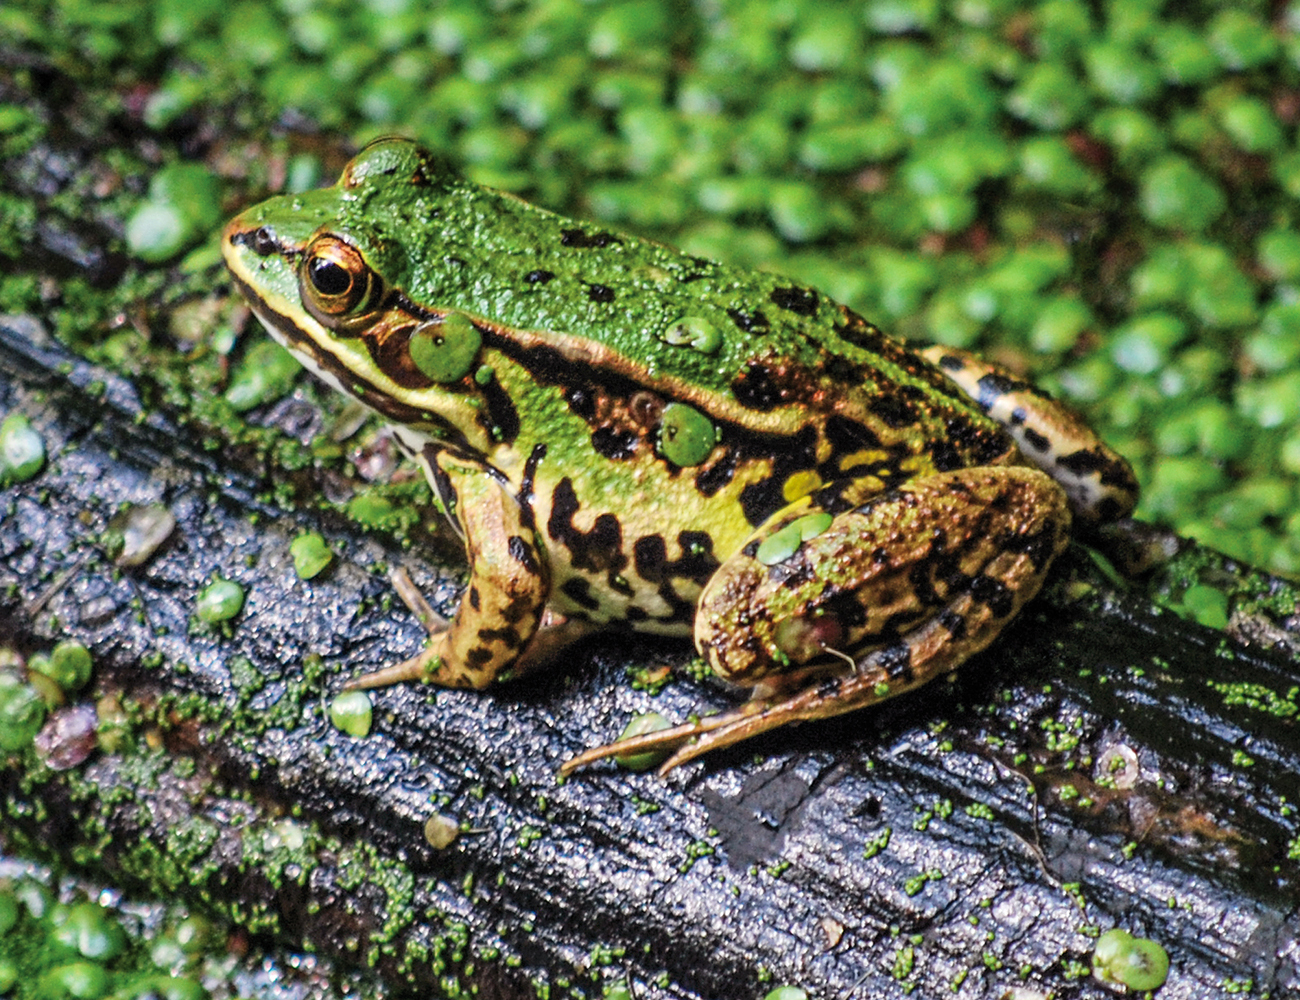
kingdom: Animalia
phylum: Chordata
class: Amphibia
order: Anura
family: Ranidae
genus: Pelophylax
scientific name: Pelophylax
